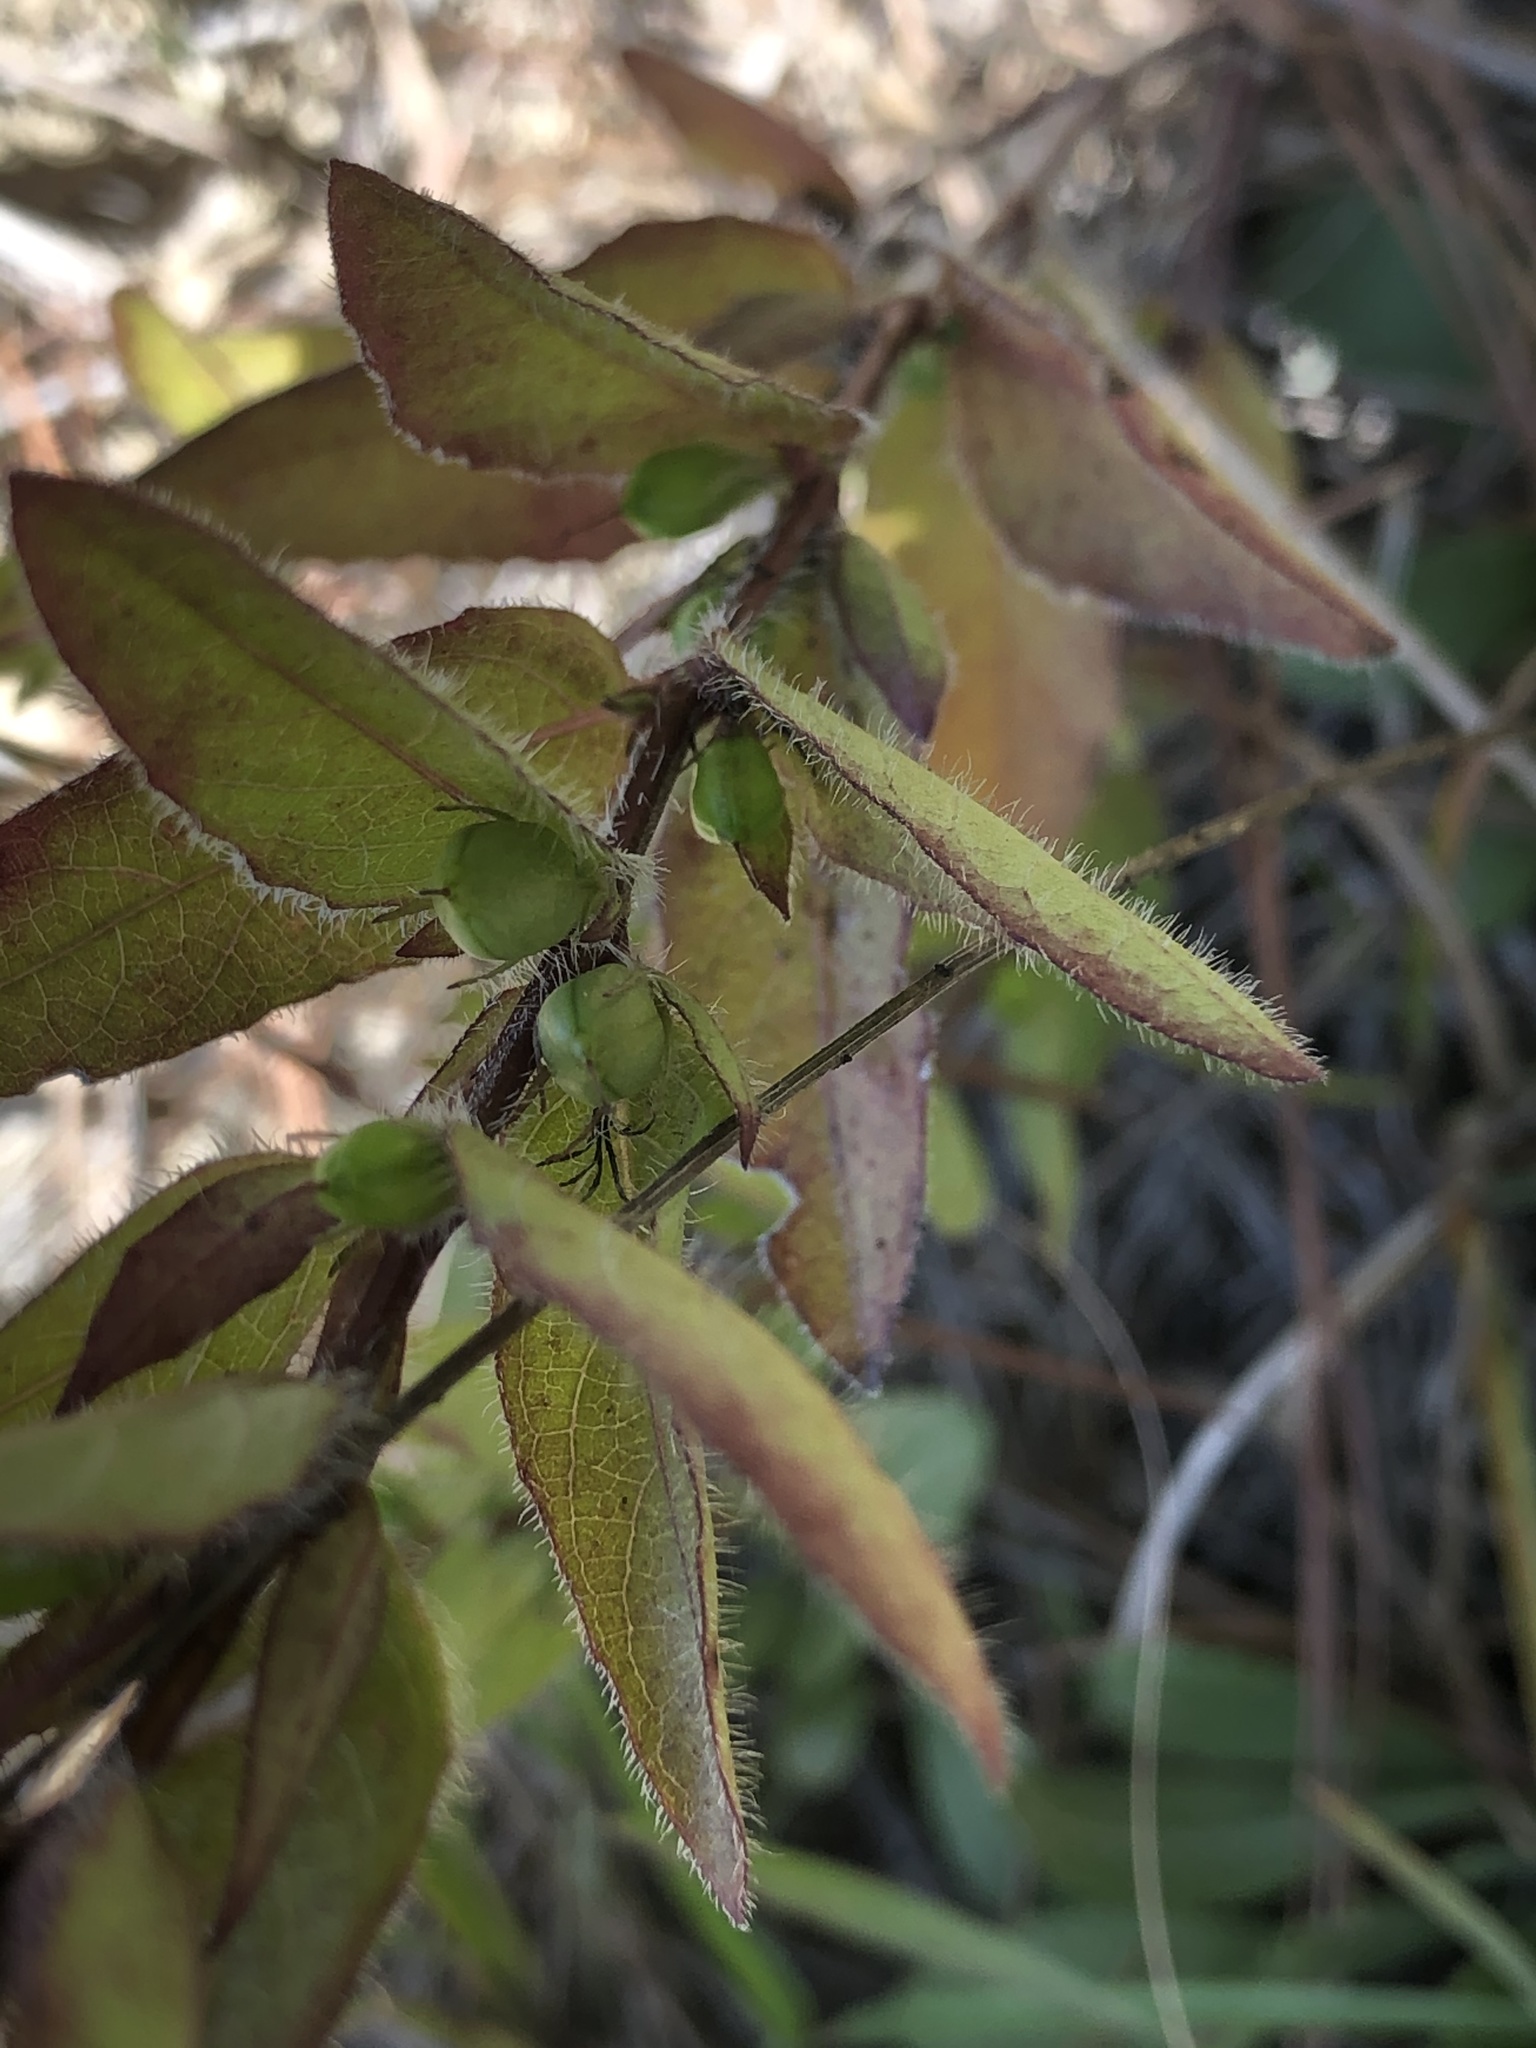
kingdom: Plantae
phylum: Tracheophyta
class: Magnoliopsida
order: Lamiales
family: Acanthaceae
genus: Ruellia
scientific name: Ruellia humilis
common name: Fringe-leaf ruellia
